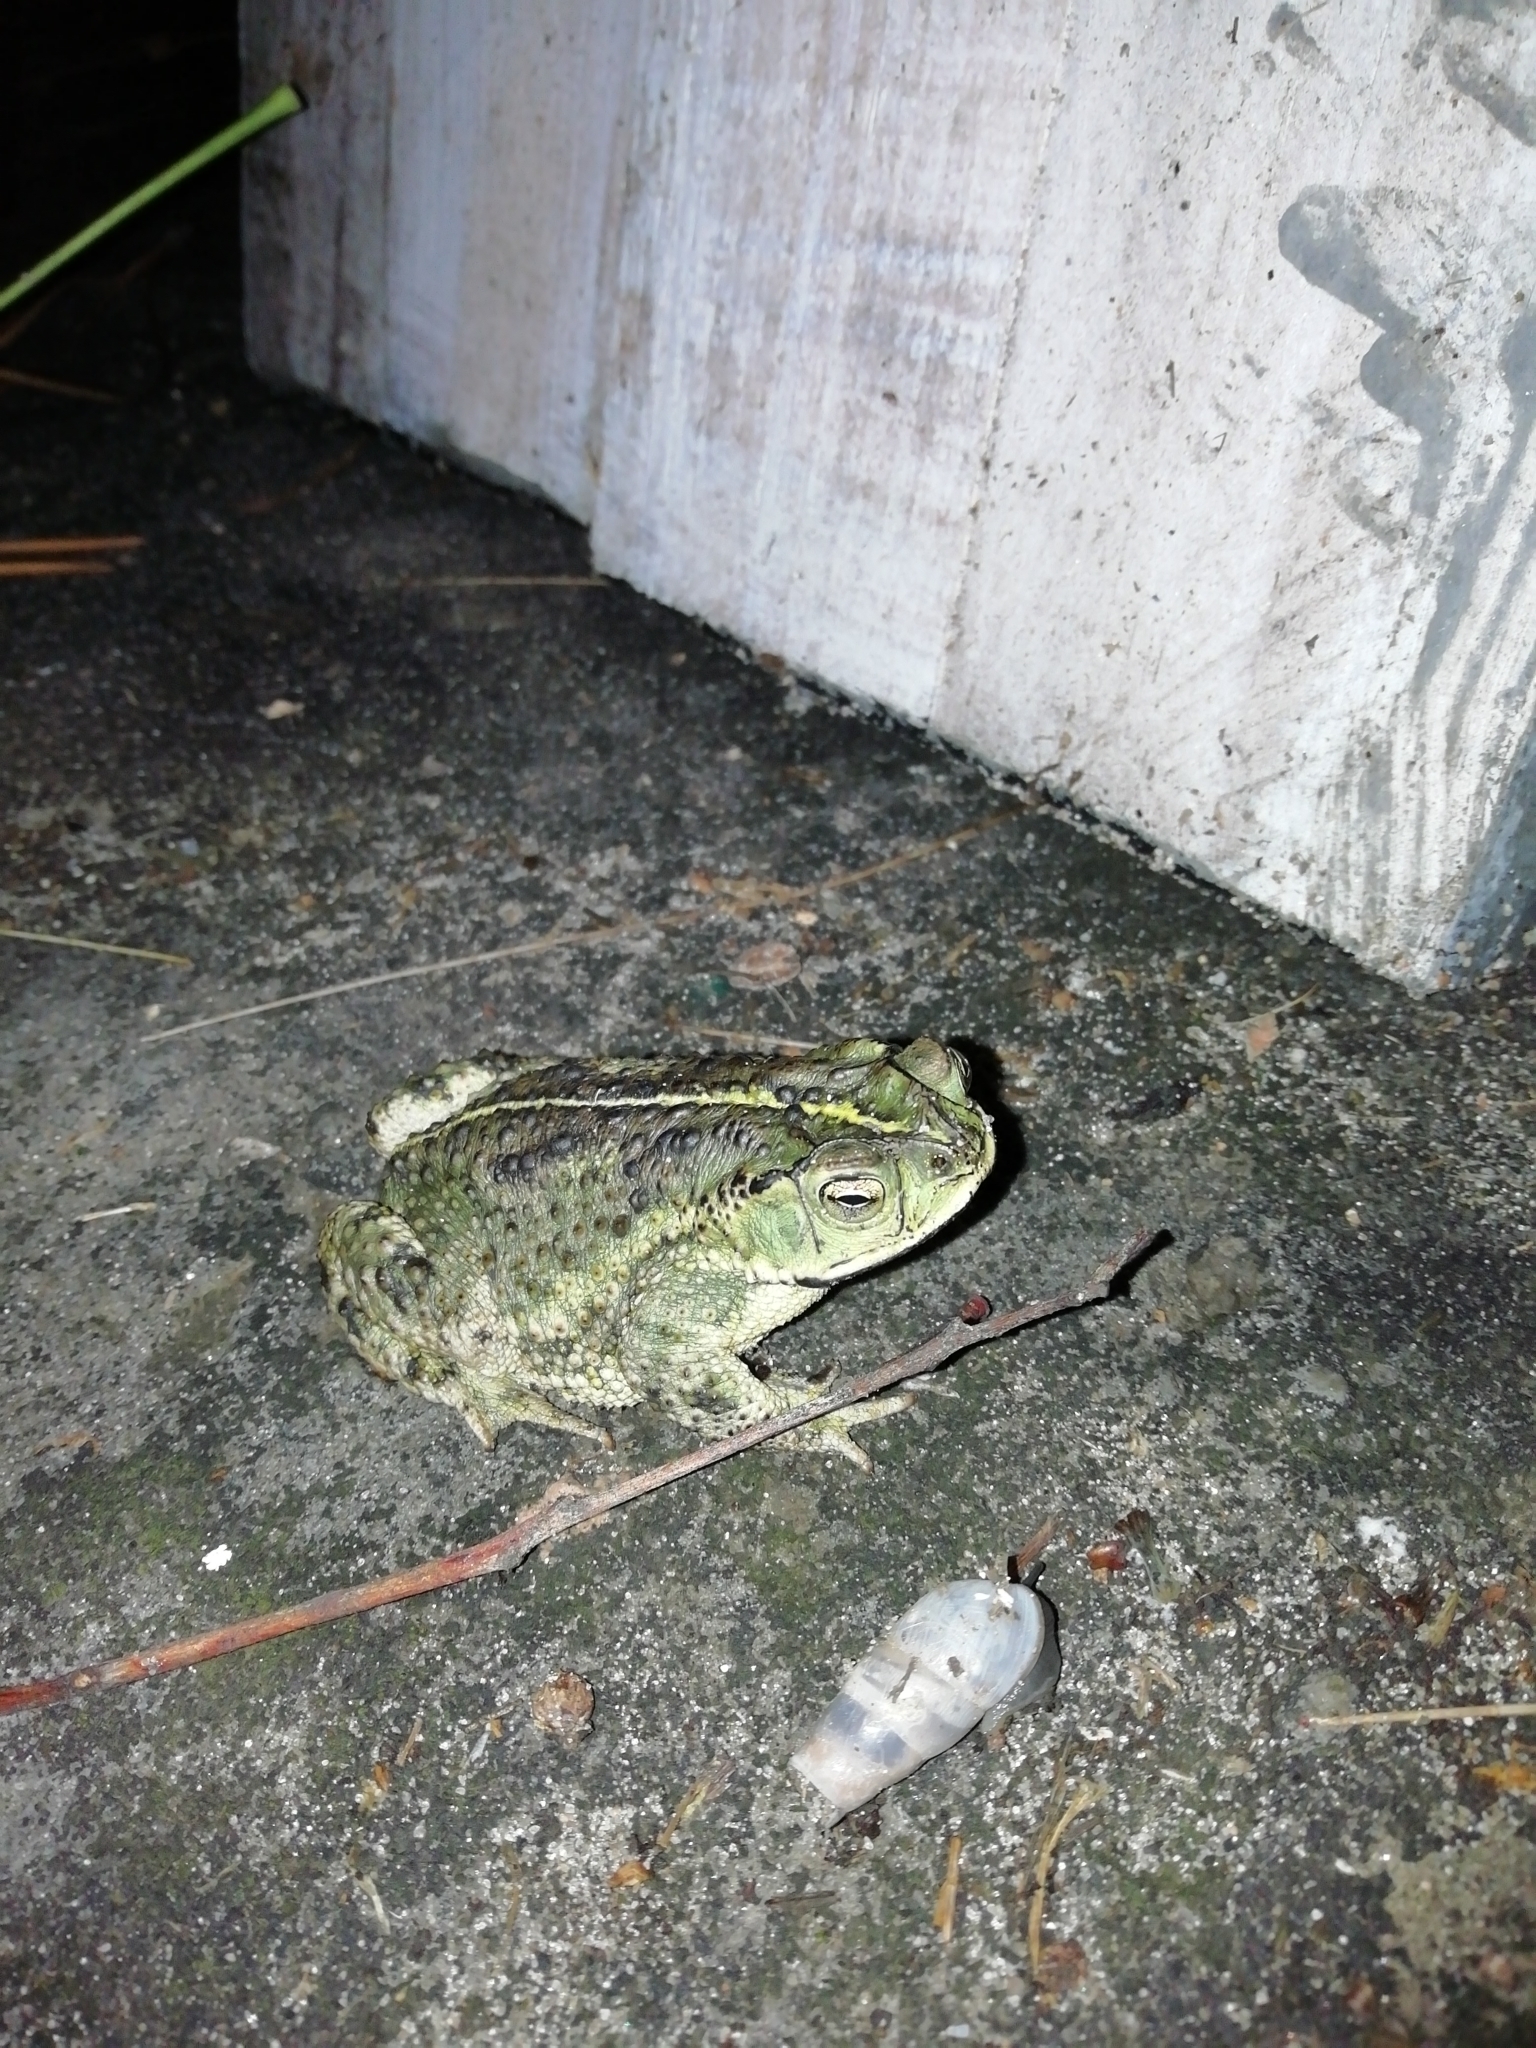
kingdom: Animalia
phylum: Chordata
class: Amphibia
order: Anura
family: Bufonidae
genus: Rhinella
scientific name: Rhinella dorbignyi
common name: D´orbigny’s toad
